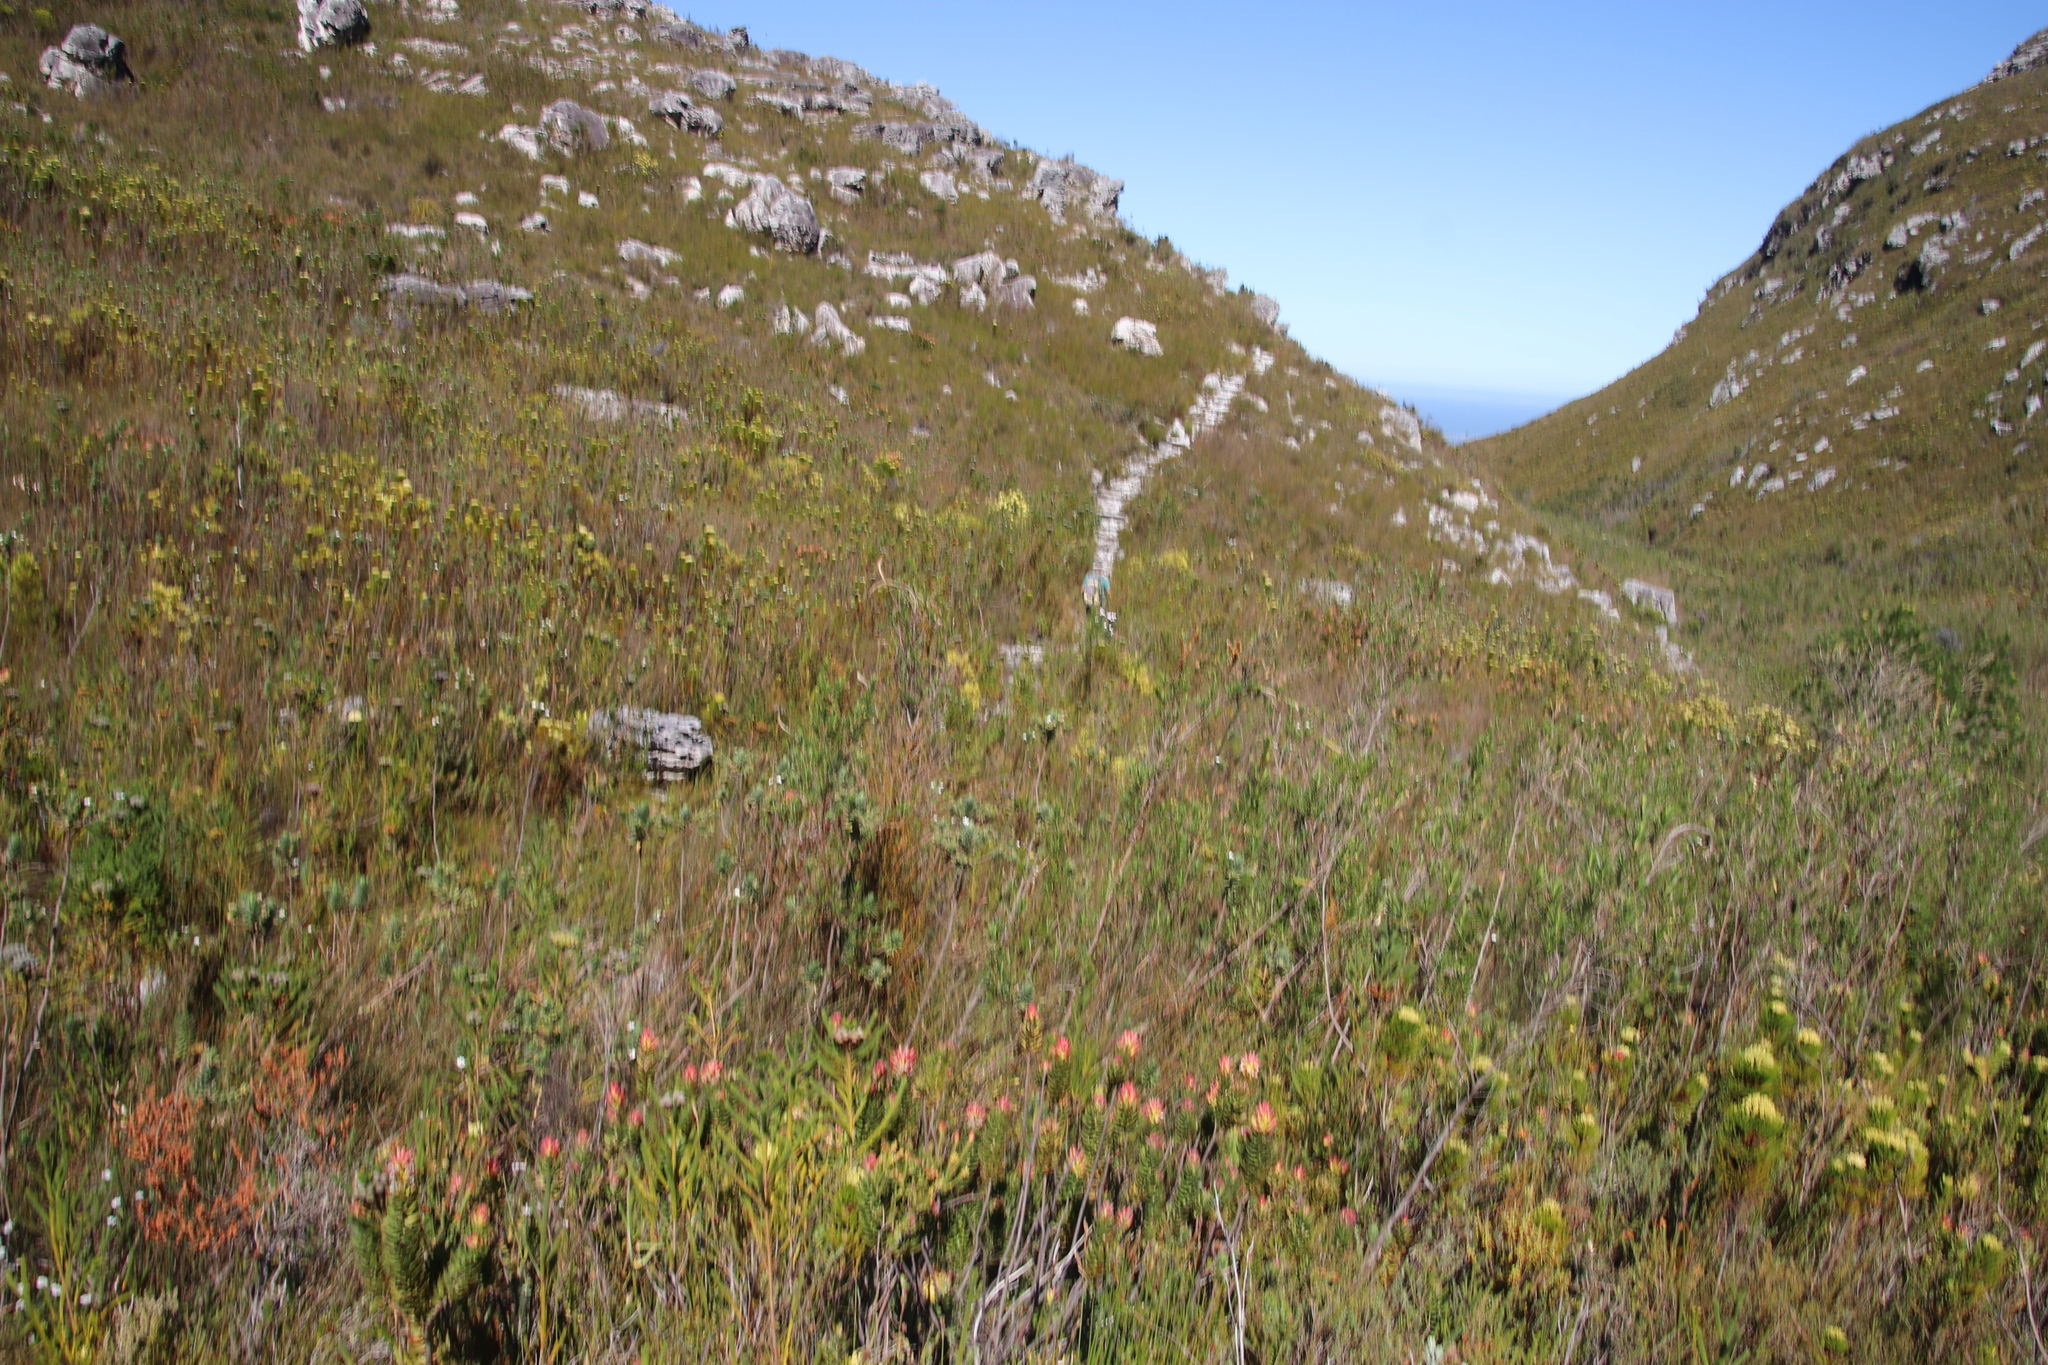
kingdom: Plantae
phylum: Tracheophyta
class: Magnoliopsida
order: Asterales
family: Asteraceae
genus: Osmitopsis
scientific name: Osmitopsis asteriscoides
